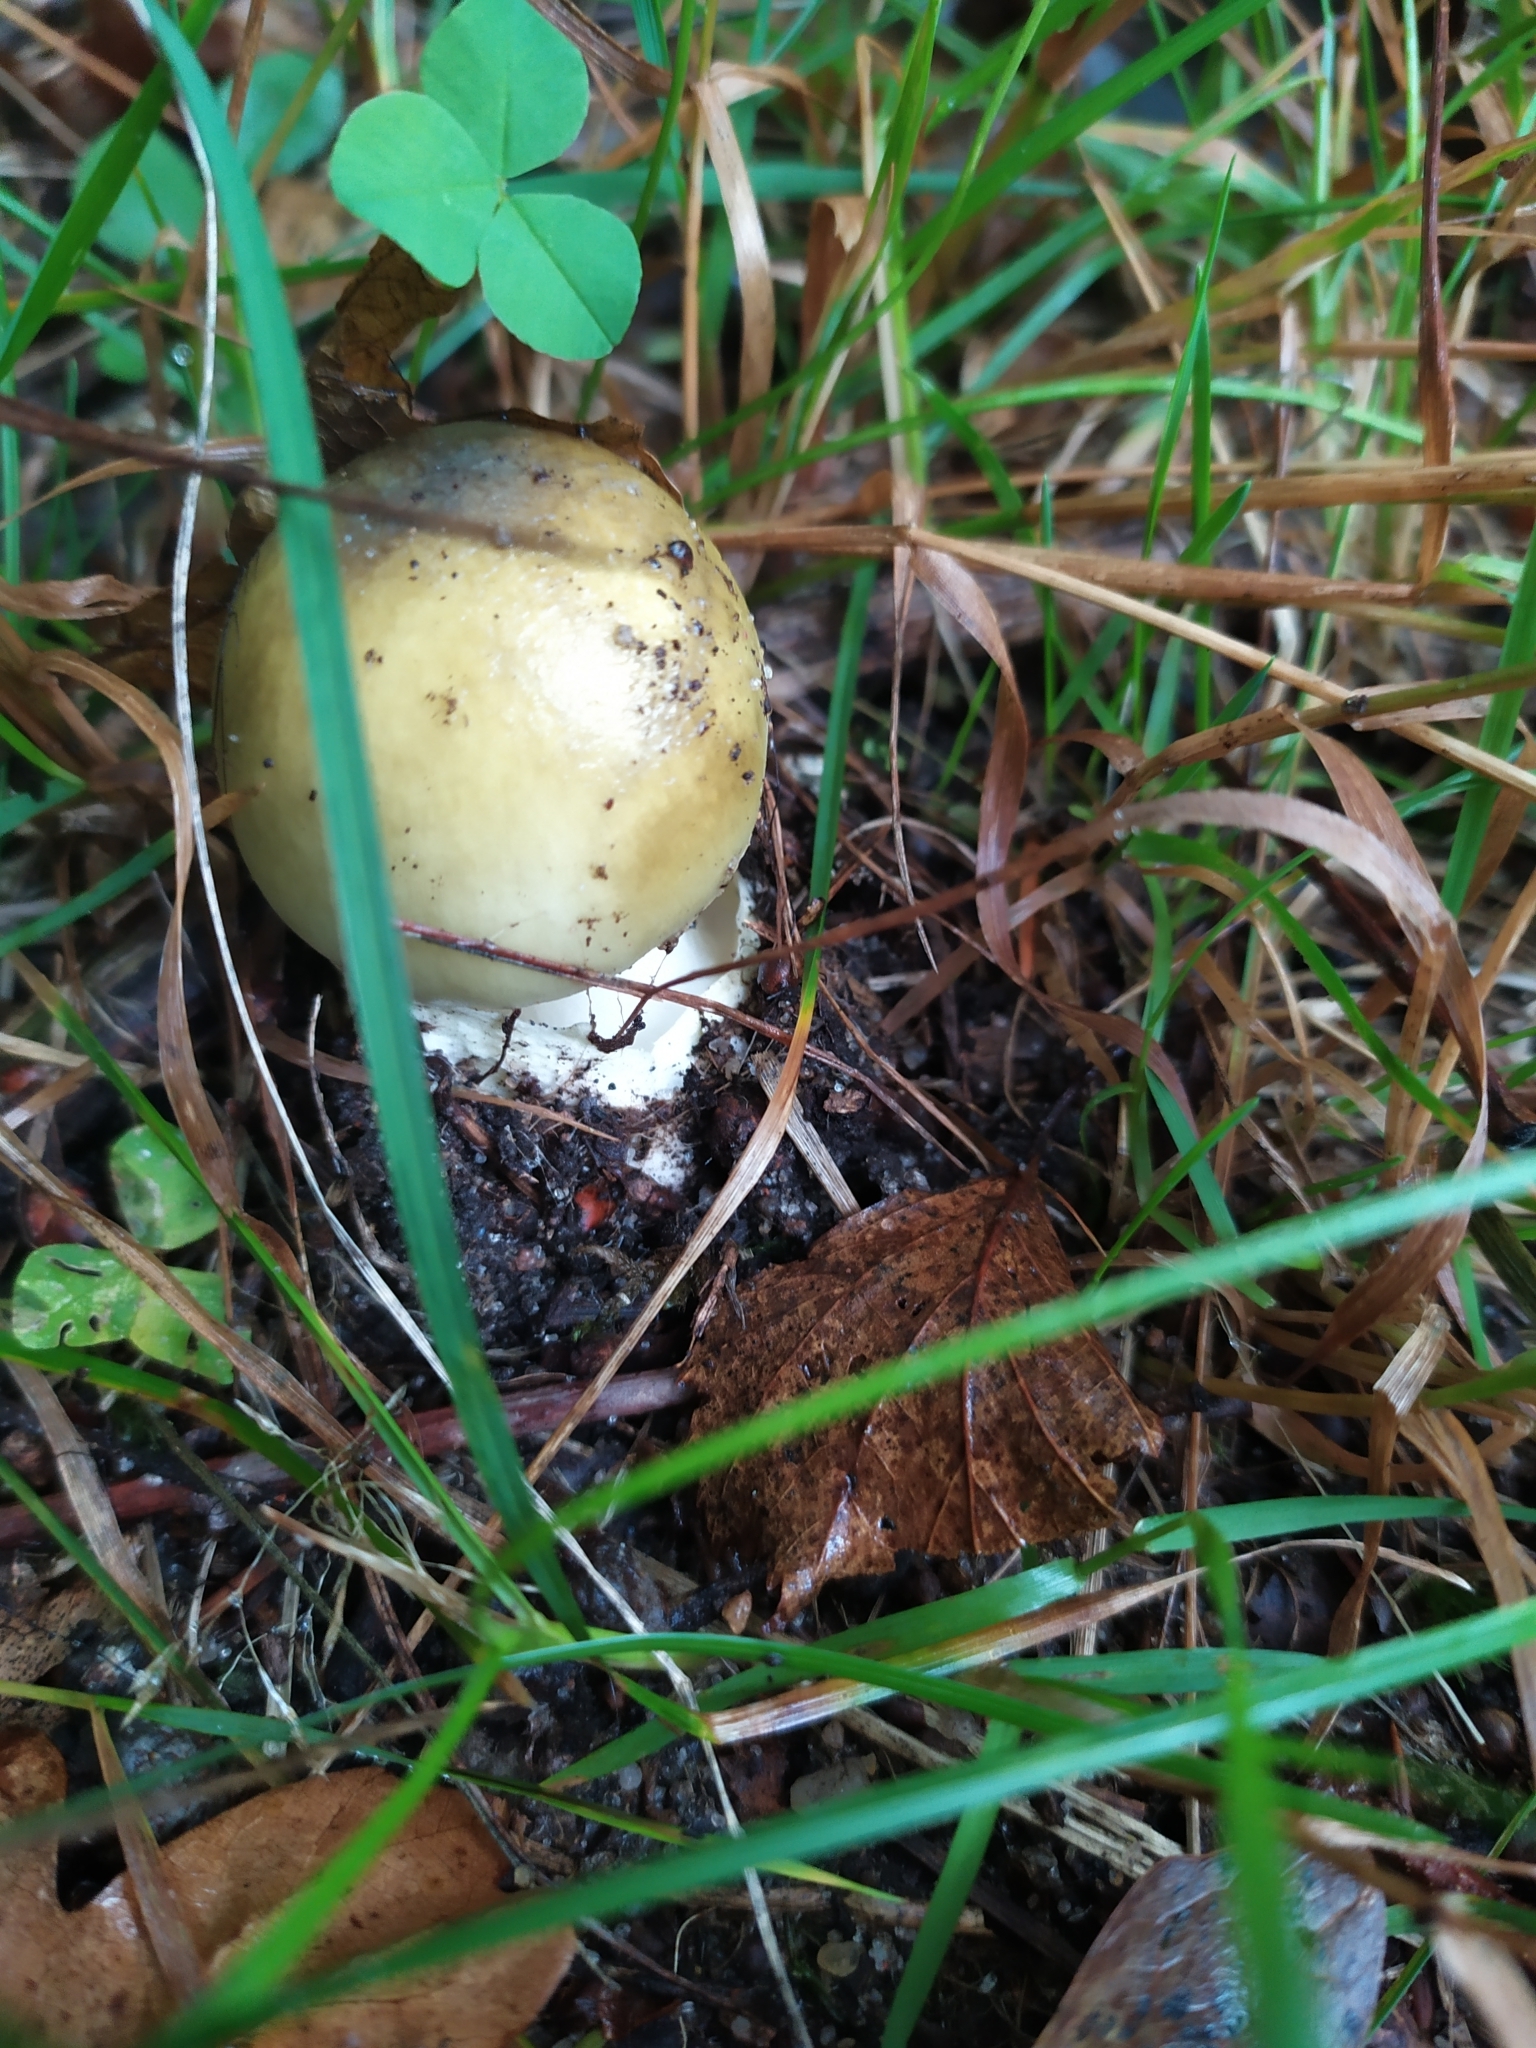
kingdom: Fungi
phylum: Basidiomycota
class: Agaricomycetes
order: Agaricales
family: Amanitaceae
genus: Amanita
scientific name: Amanita phalloides
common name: Death cap
